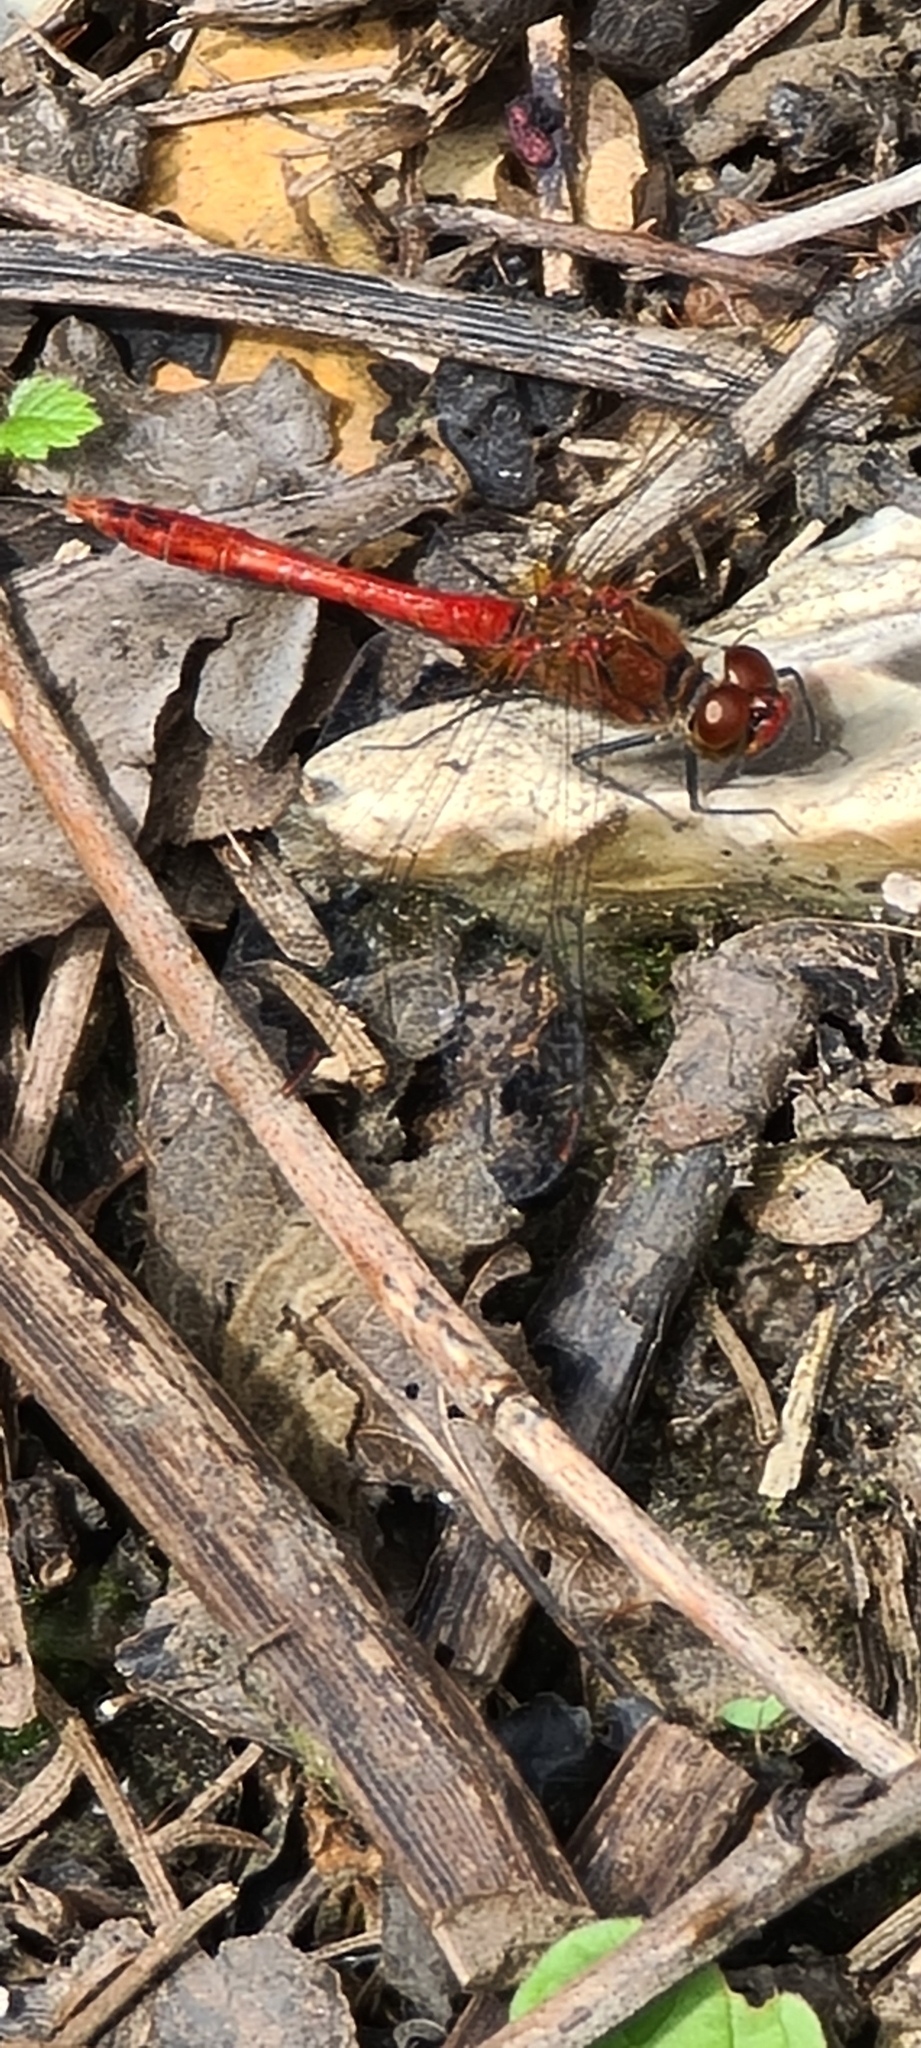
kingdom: Animalia
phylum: Arthropoda
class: Insecta
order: Odonata
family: Libellulidae
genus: Sympetrum
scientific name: Sympetrum sanguineum
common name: Ruddy darter
